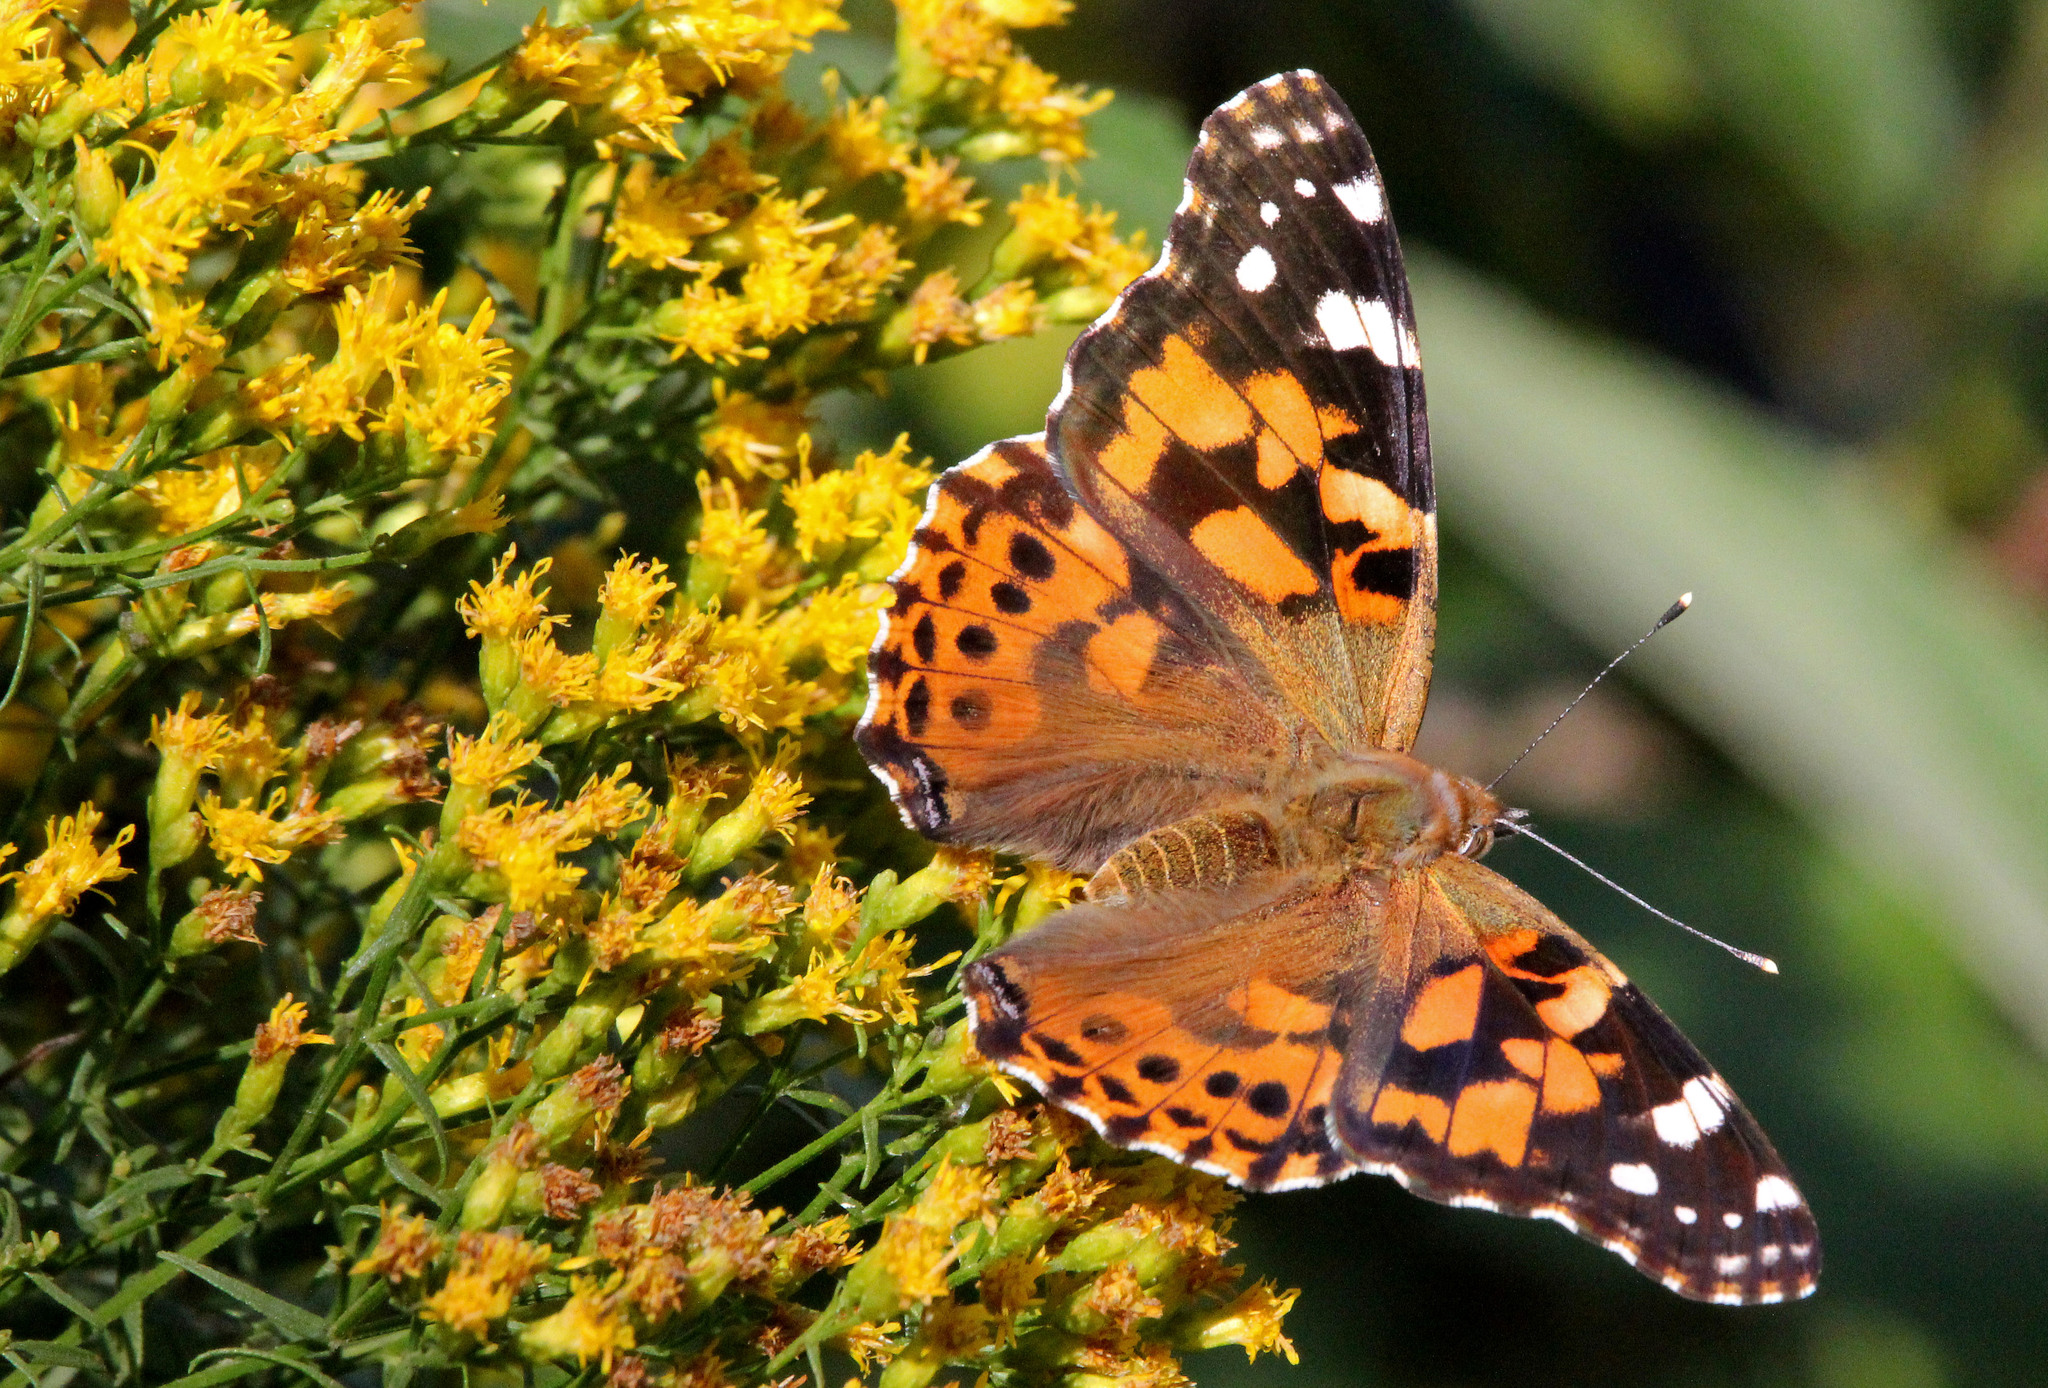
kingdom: Animalia
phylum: Arthropoda
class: Insecta
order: Lepidoptera
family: Nymphalidae
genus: Vanessa
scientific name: Vanessa cardui
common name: Painted lady
